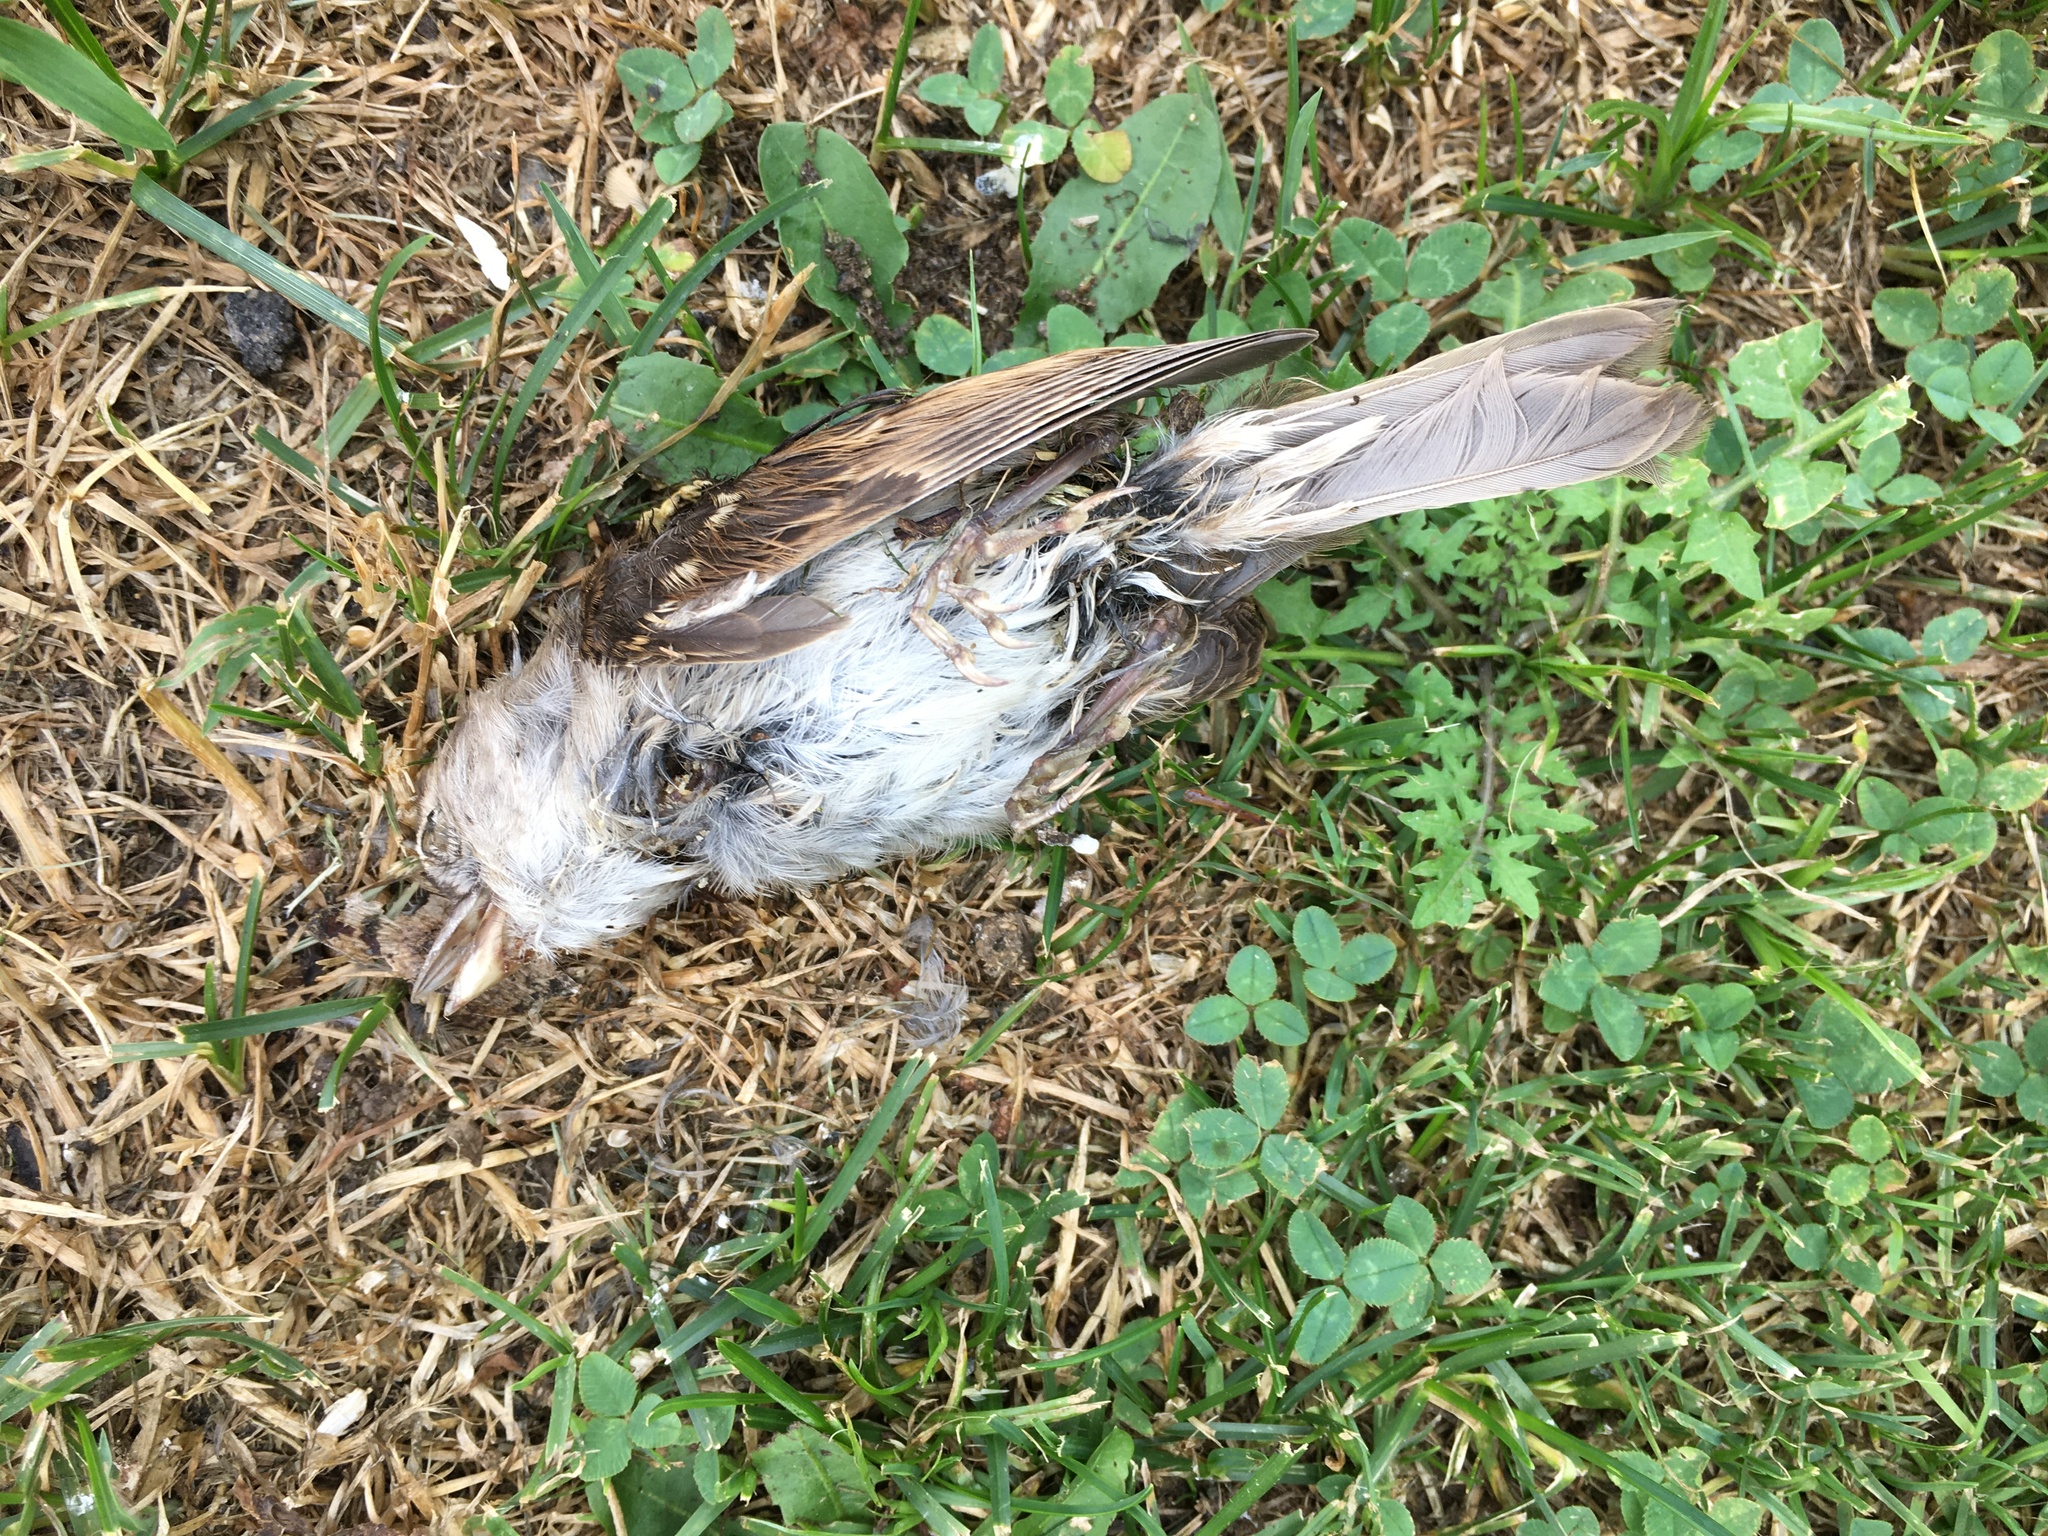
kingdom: Animalia
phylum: Chordata
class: Aves
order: Passeriformes
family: Passeridae
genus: Passer
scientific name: Passer domesticus
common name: House sparrow
